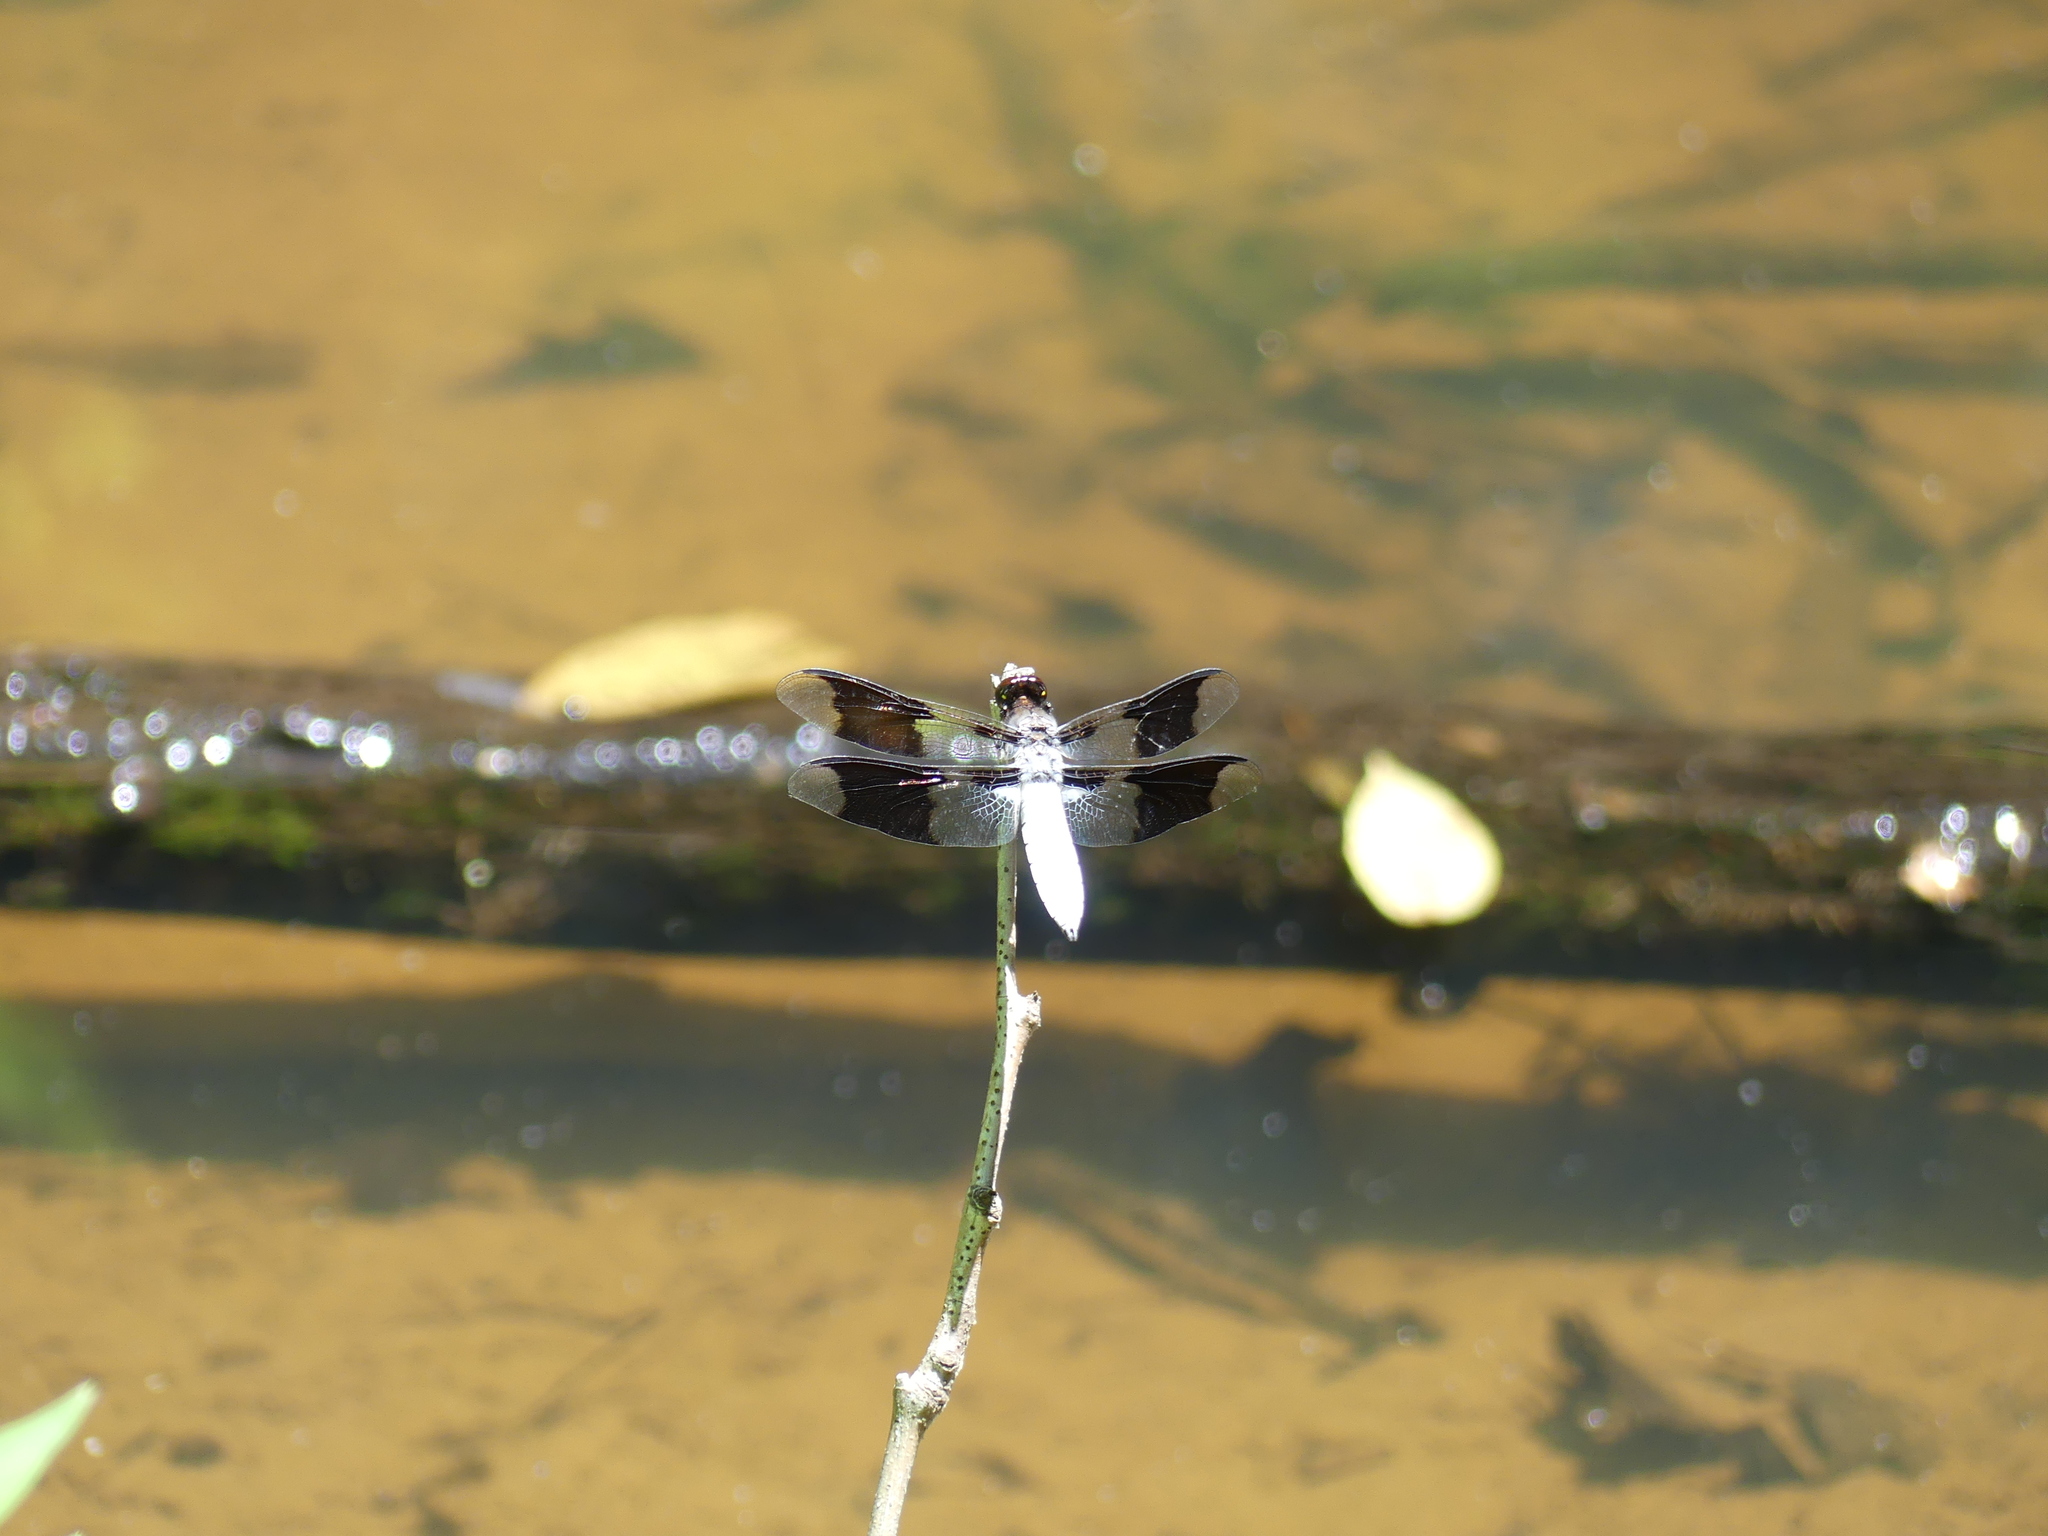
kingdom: Animalia
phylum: Arthropoda
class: Insecta
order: Odonata
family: Libellulidae
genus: Plathemis
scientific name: Plathemis lydia
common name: Common whitetail
